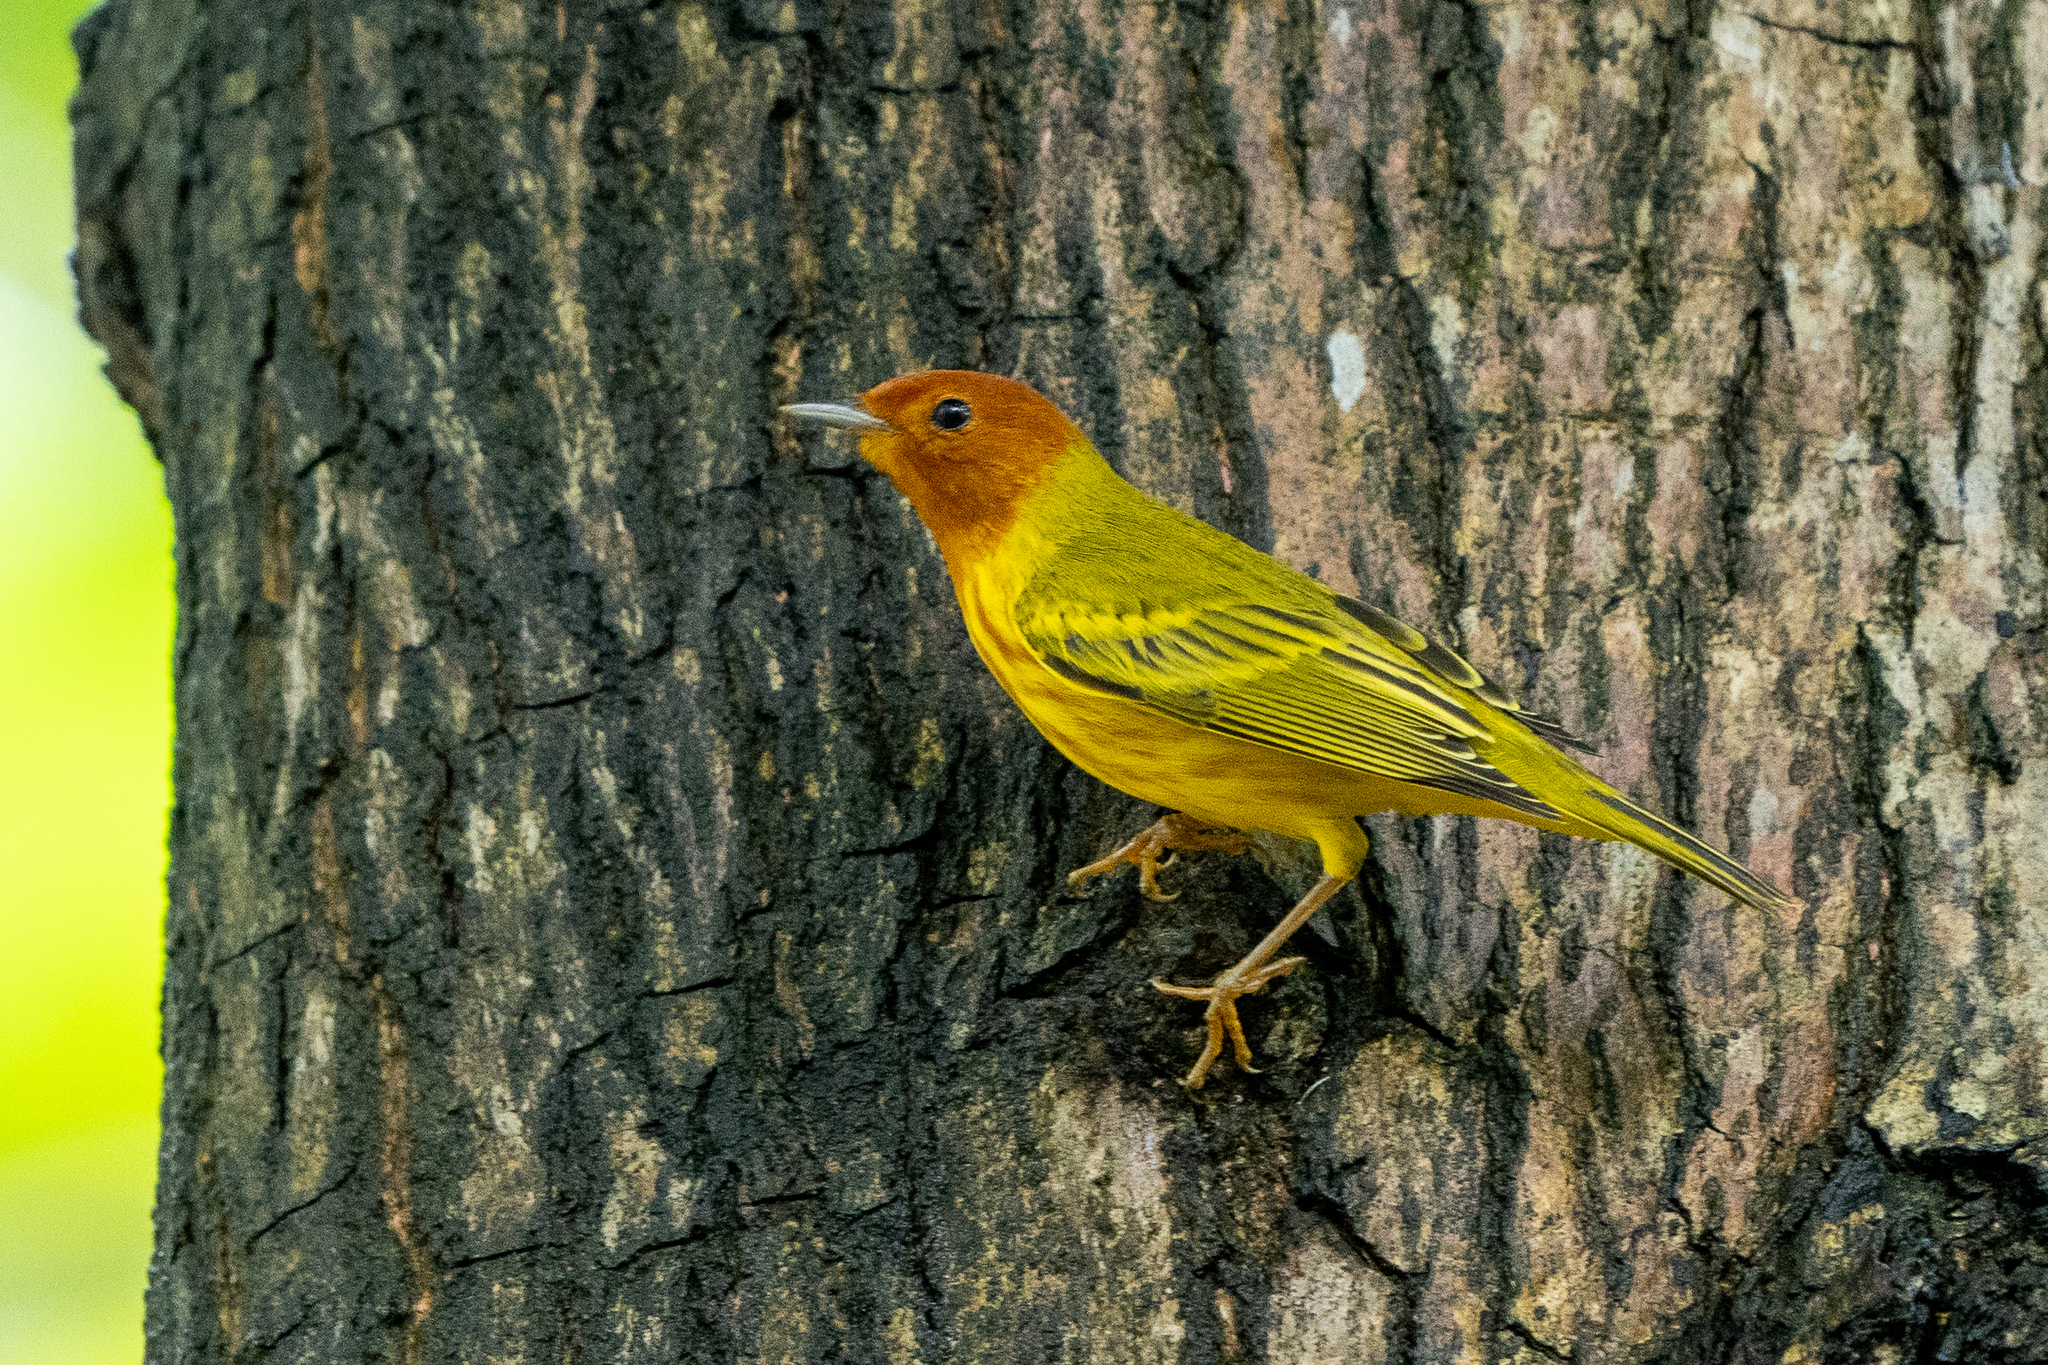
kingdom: Animalia
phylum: Chordata
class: Aves
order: Passeriformes
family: Parulidae
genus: Setophaga
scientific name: Setophaga petechia
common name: Yellow warbler
